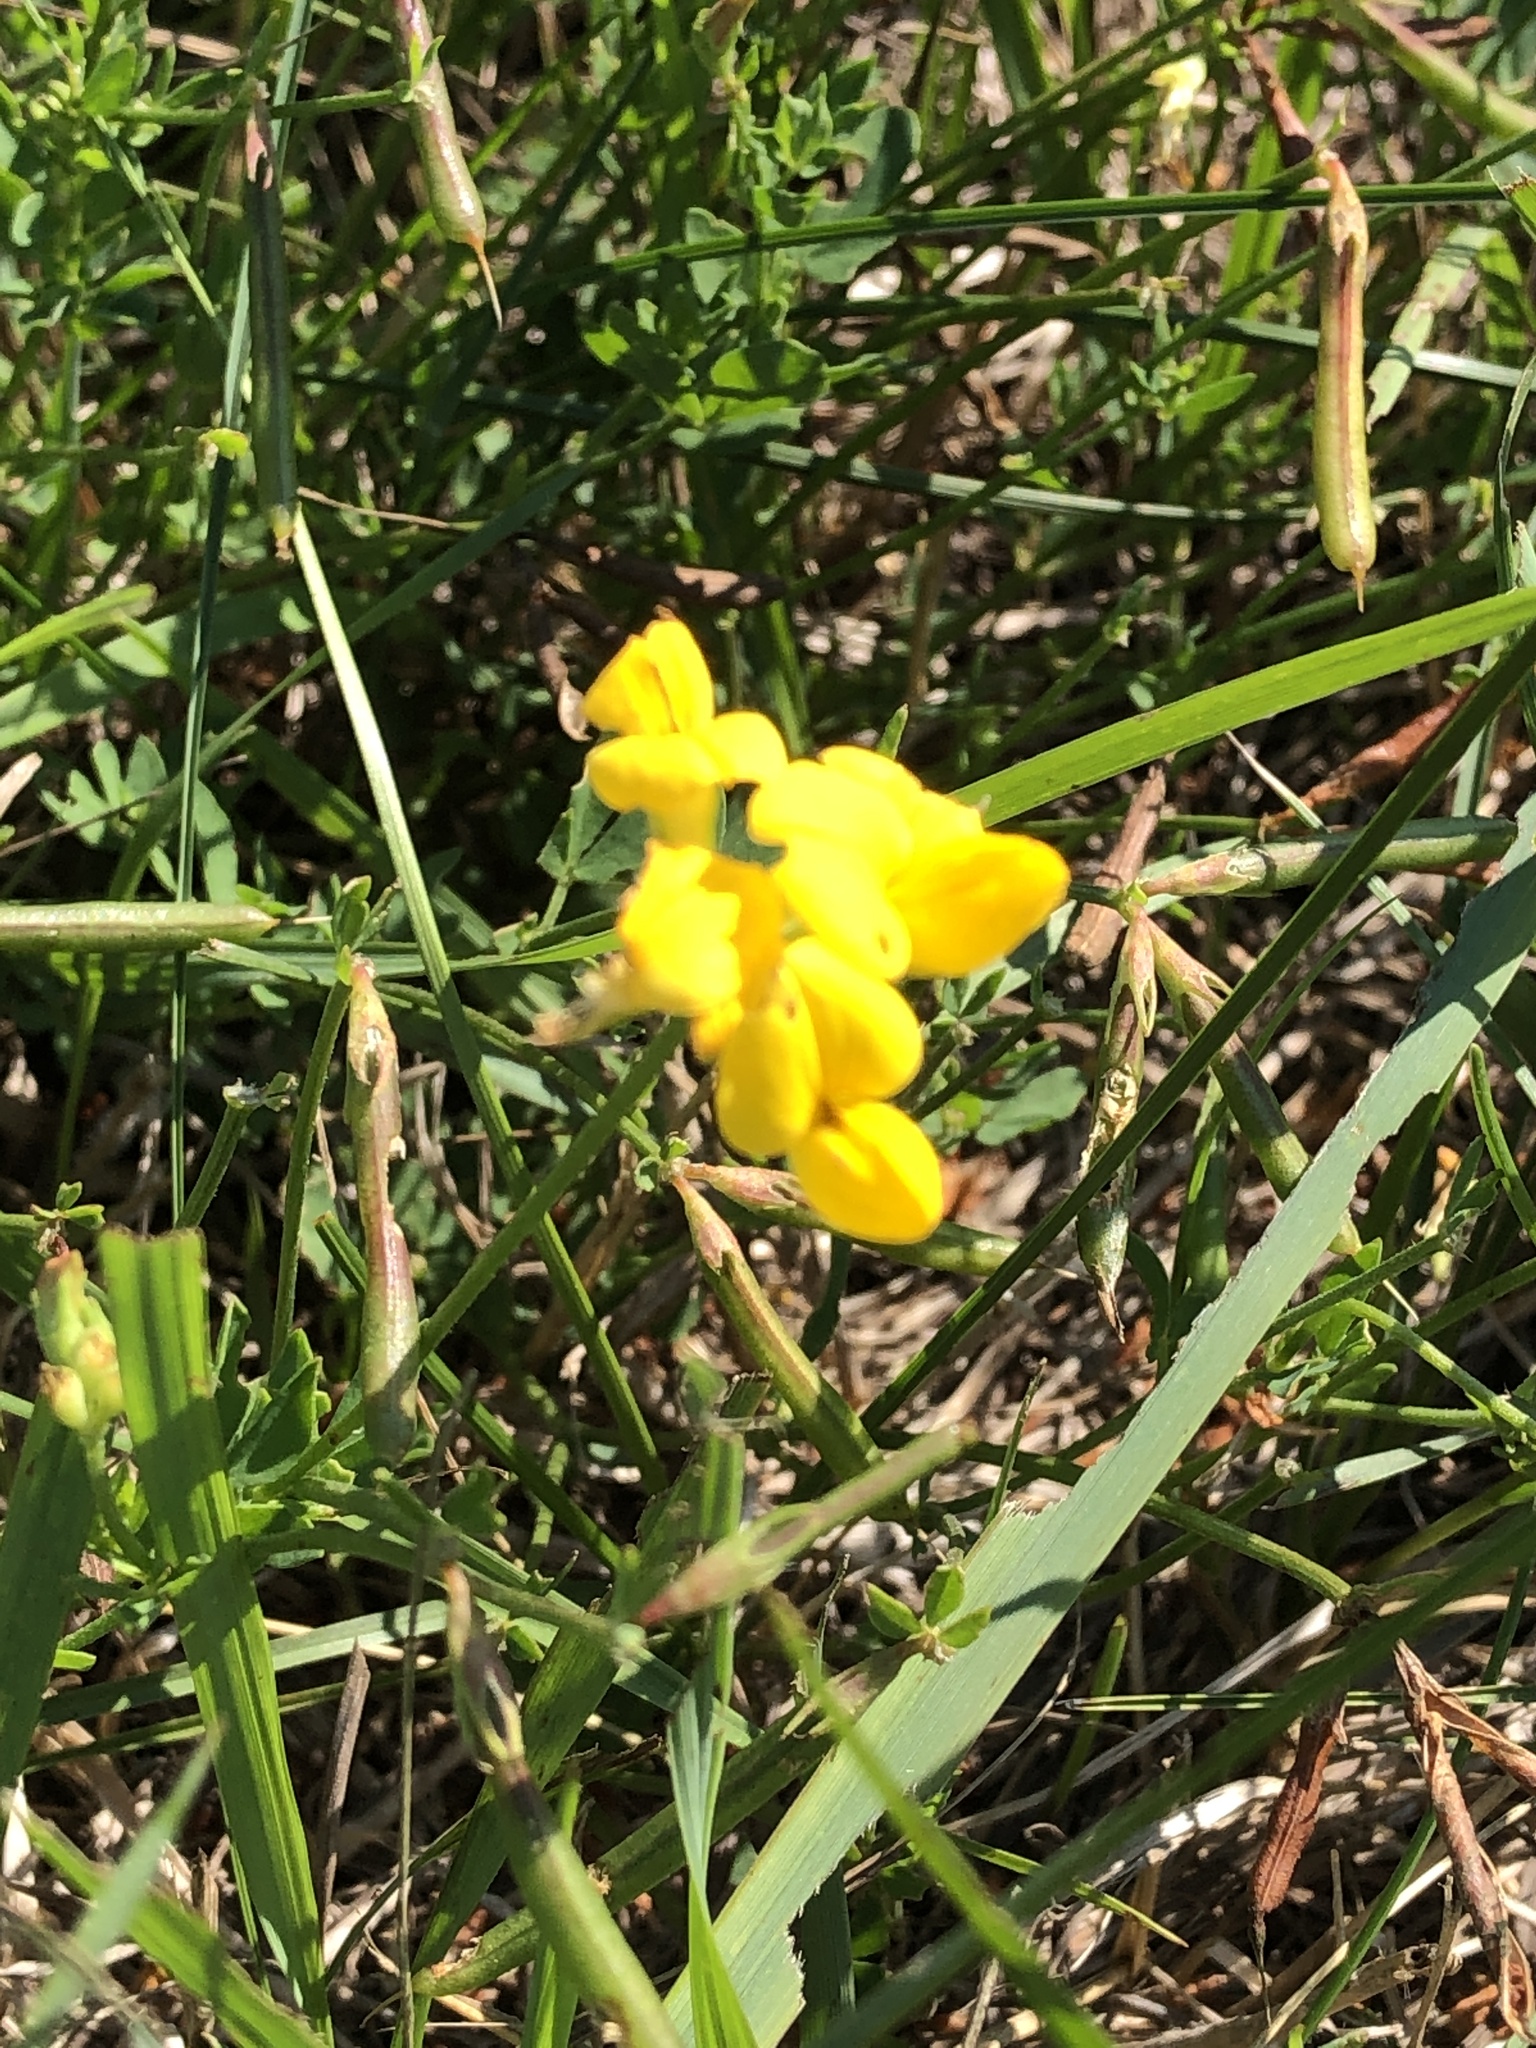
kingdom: Plantae
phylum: Tracheophyta
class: Magnoliopsida
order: Fabales
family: Fabaceae
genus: Lotus
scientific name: Lotus corniculatus
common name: Common bird's-foot-trefoil
